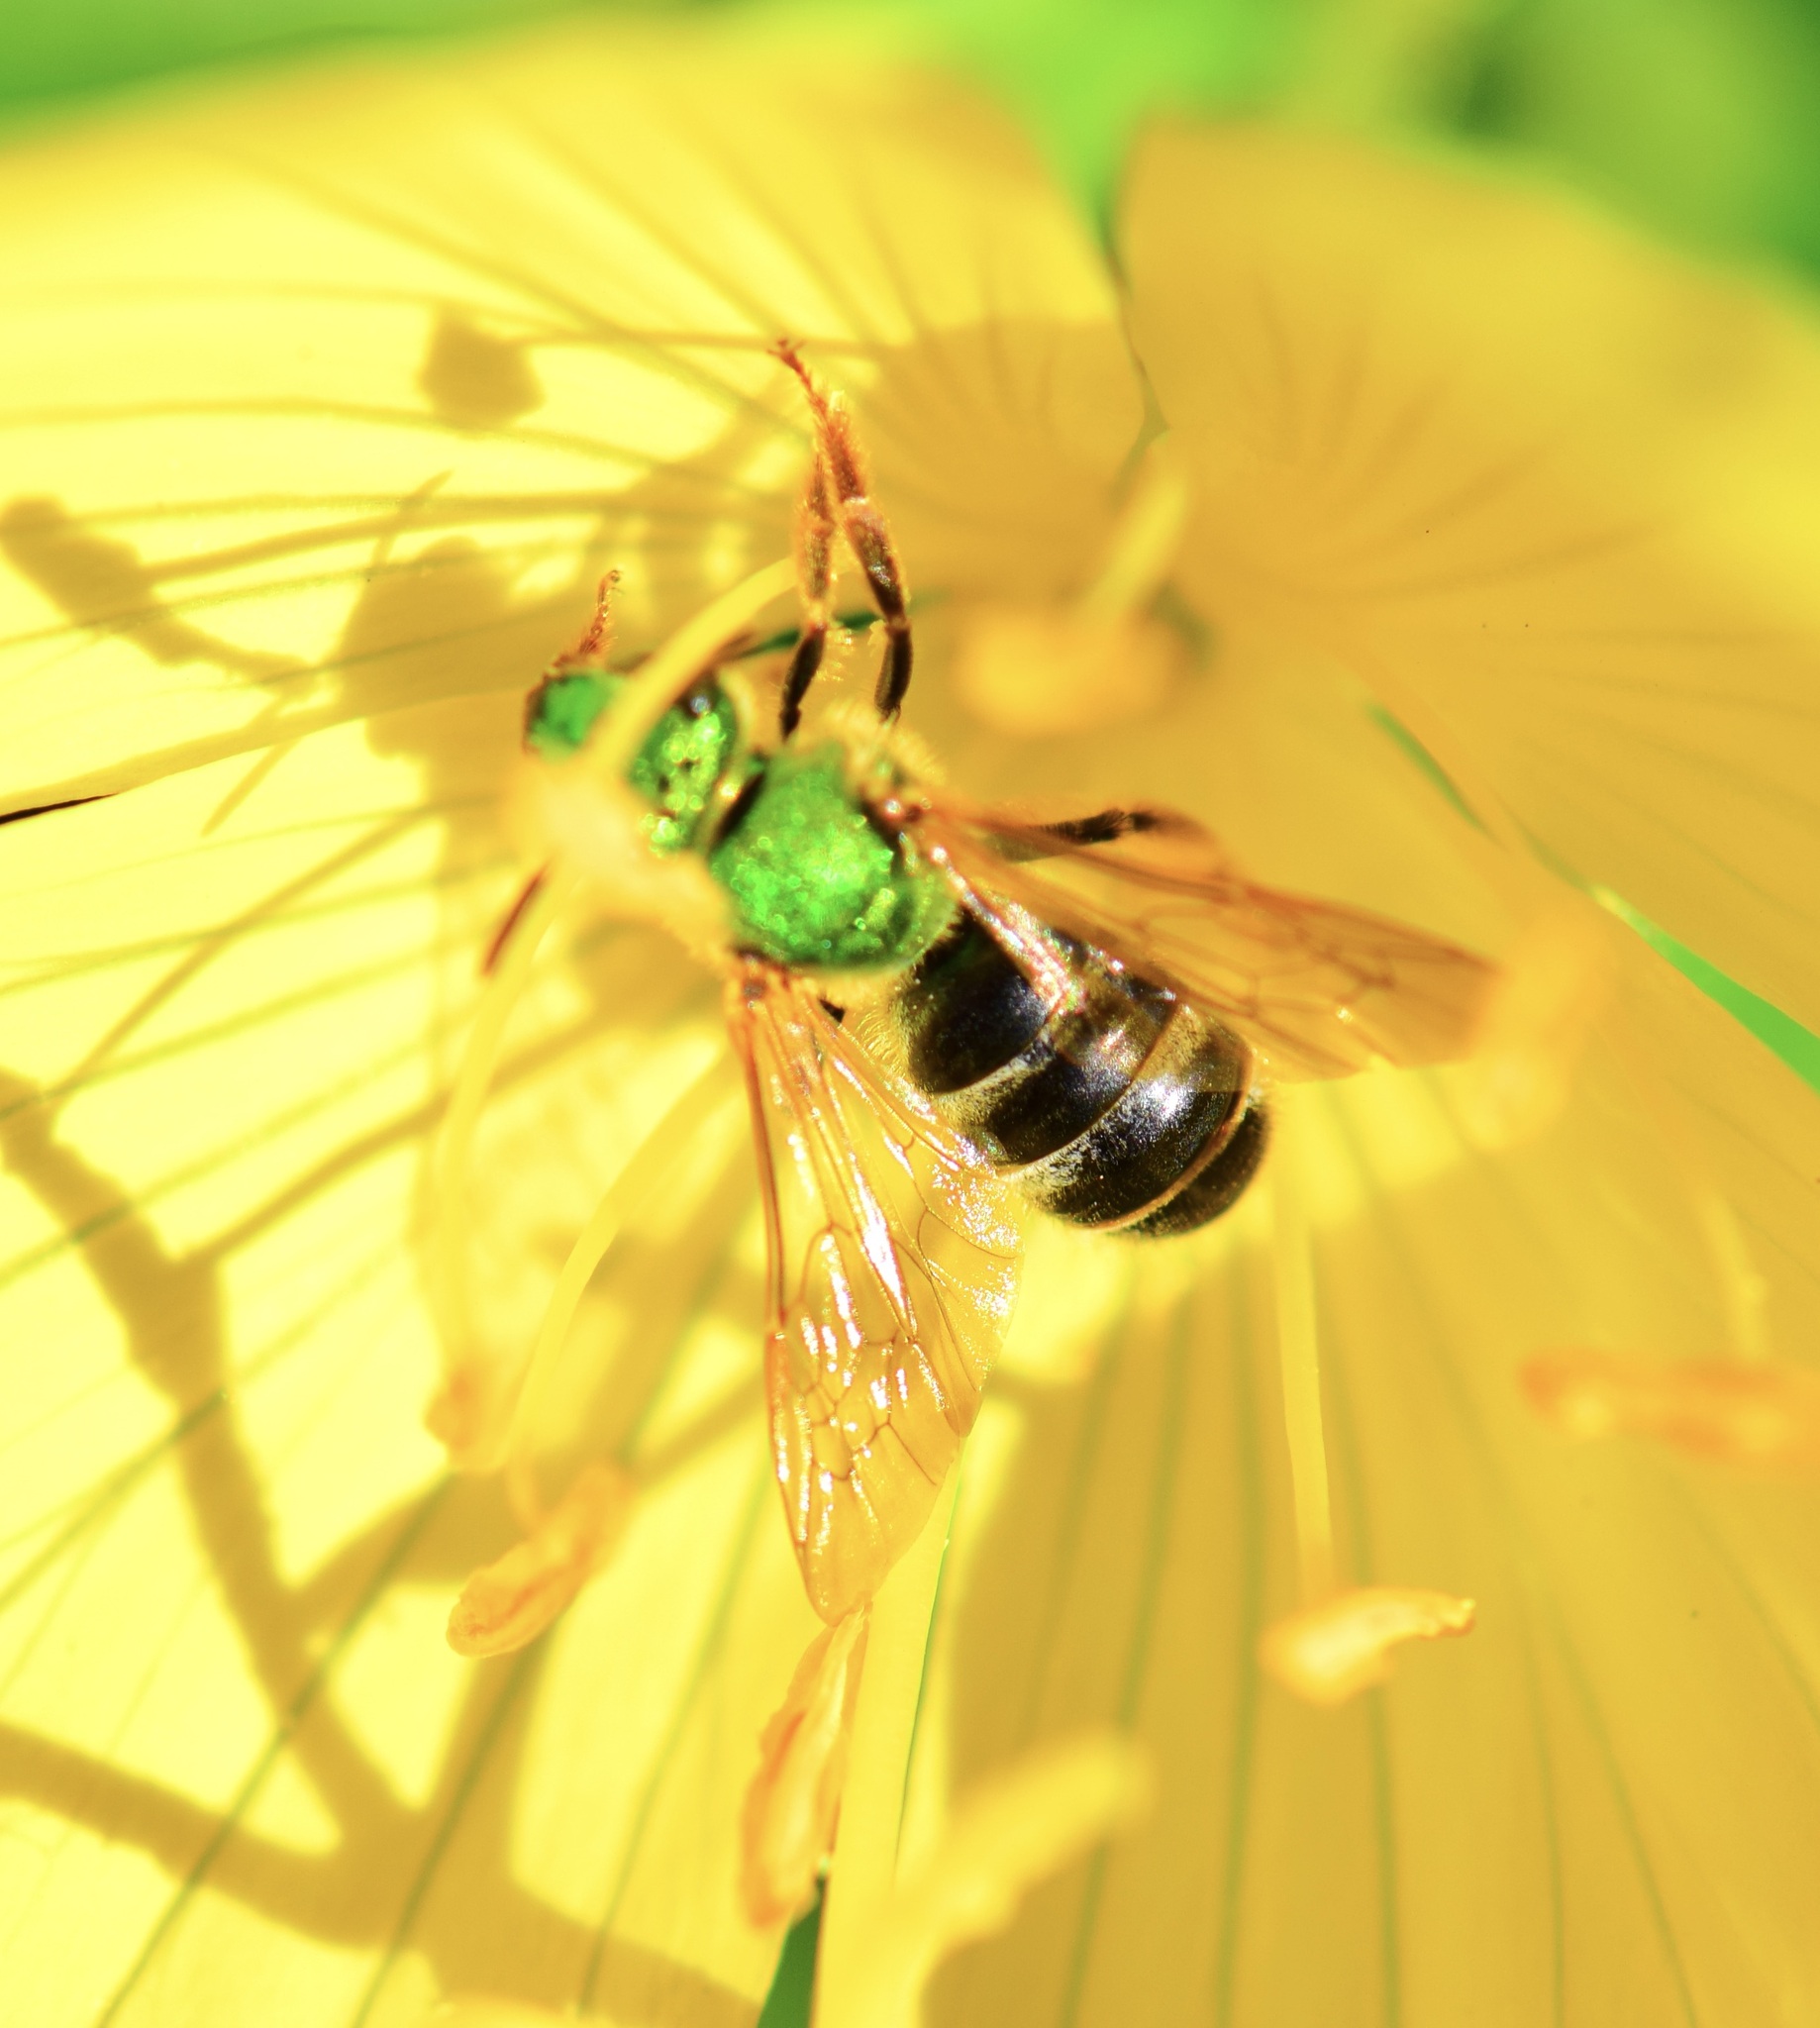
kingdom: Animalia
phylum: Arthropoda
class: Insecta
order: Hymenoptera
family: Halictidae
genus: Agapostemon
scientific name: Agapostemon virescens
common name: Bicolored striped sweat bee
